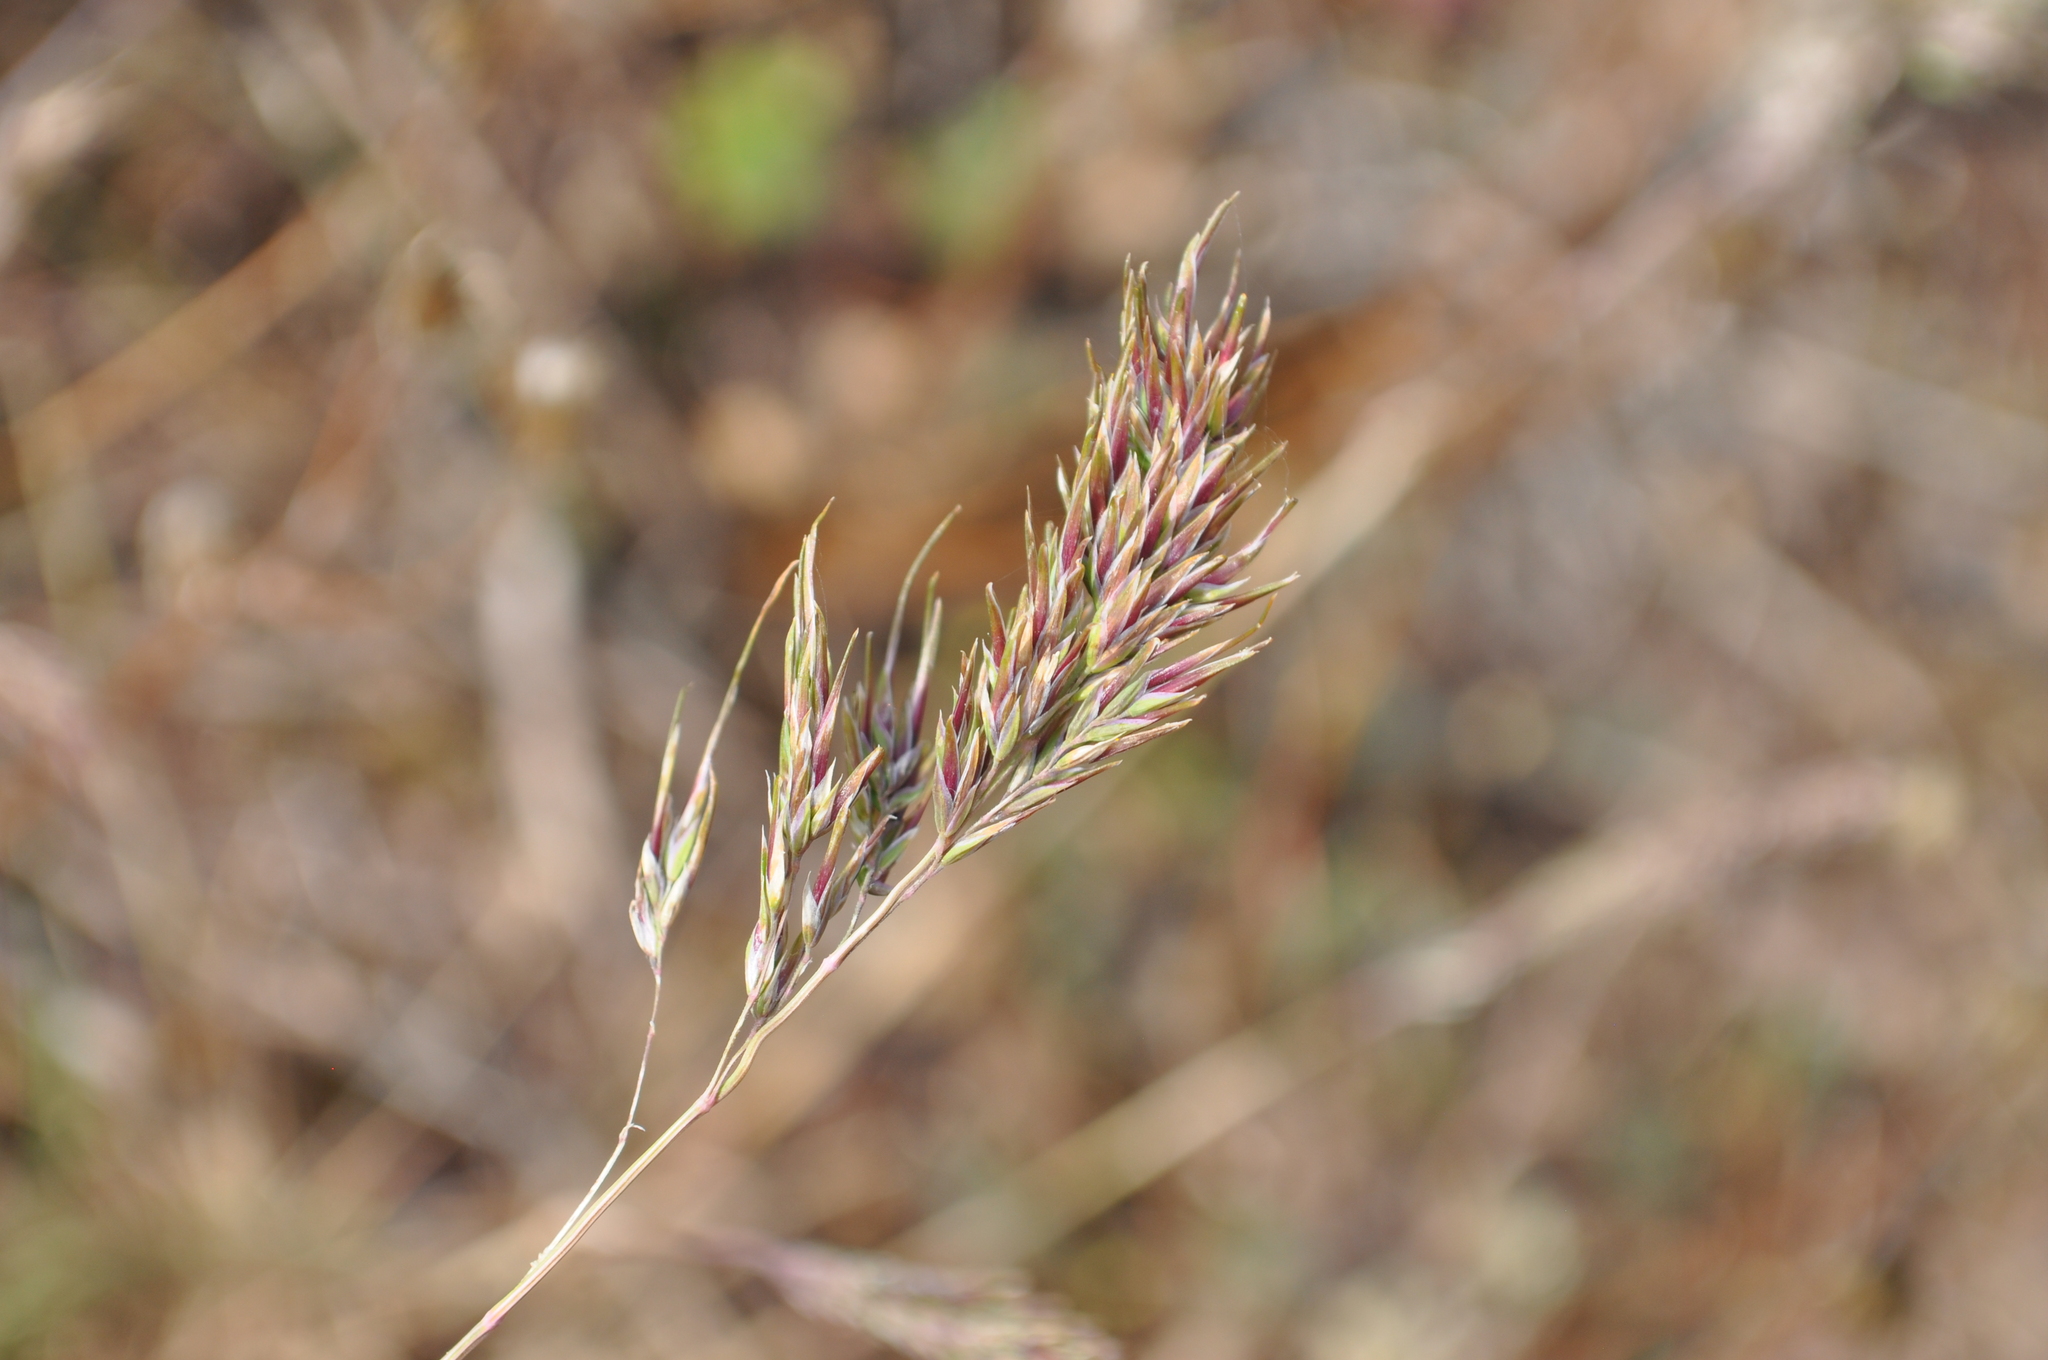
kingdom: Plantae
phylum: Tracheophyta
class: Liliopsida
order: Poales
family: Poaceae
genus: Poa
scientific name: Poa bulbosa
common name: Bulbous bluegrass
